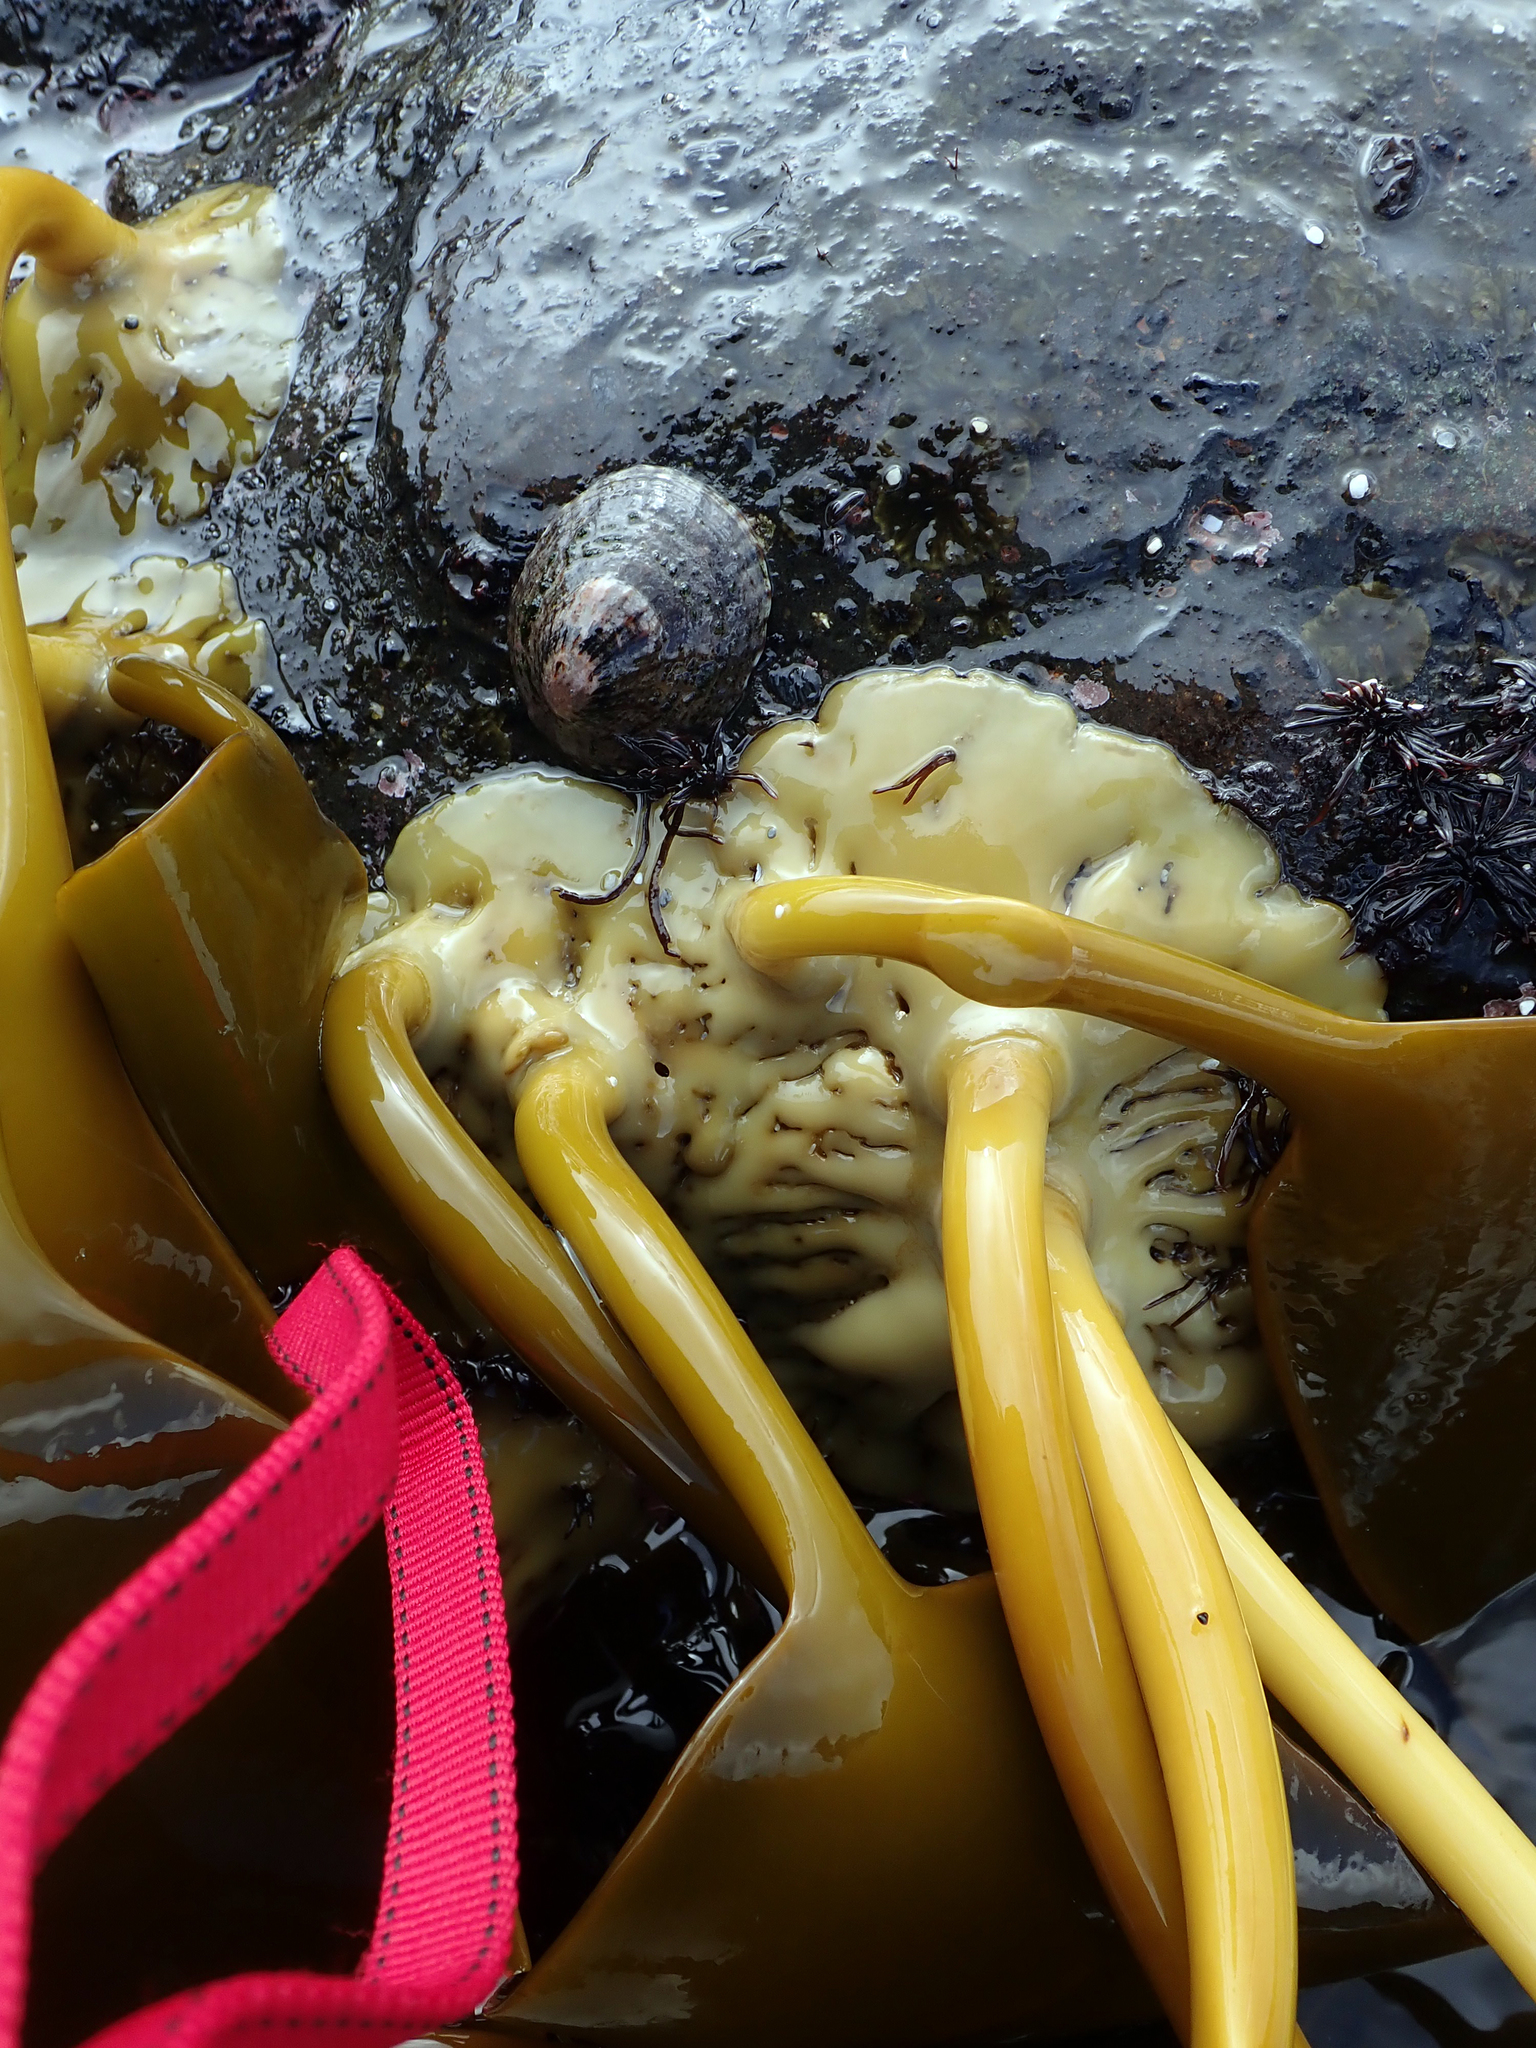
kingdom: Chromista
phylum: Ochrophyta
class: Phaeophyceae
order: Fucales
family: Durvillaeaceae
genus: Durvillaea
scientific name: Durvillaea chathamensis
